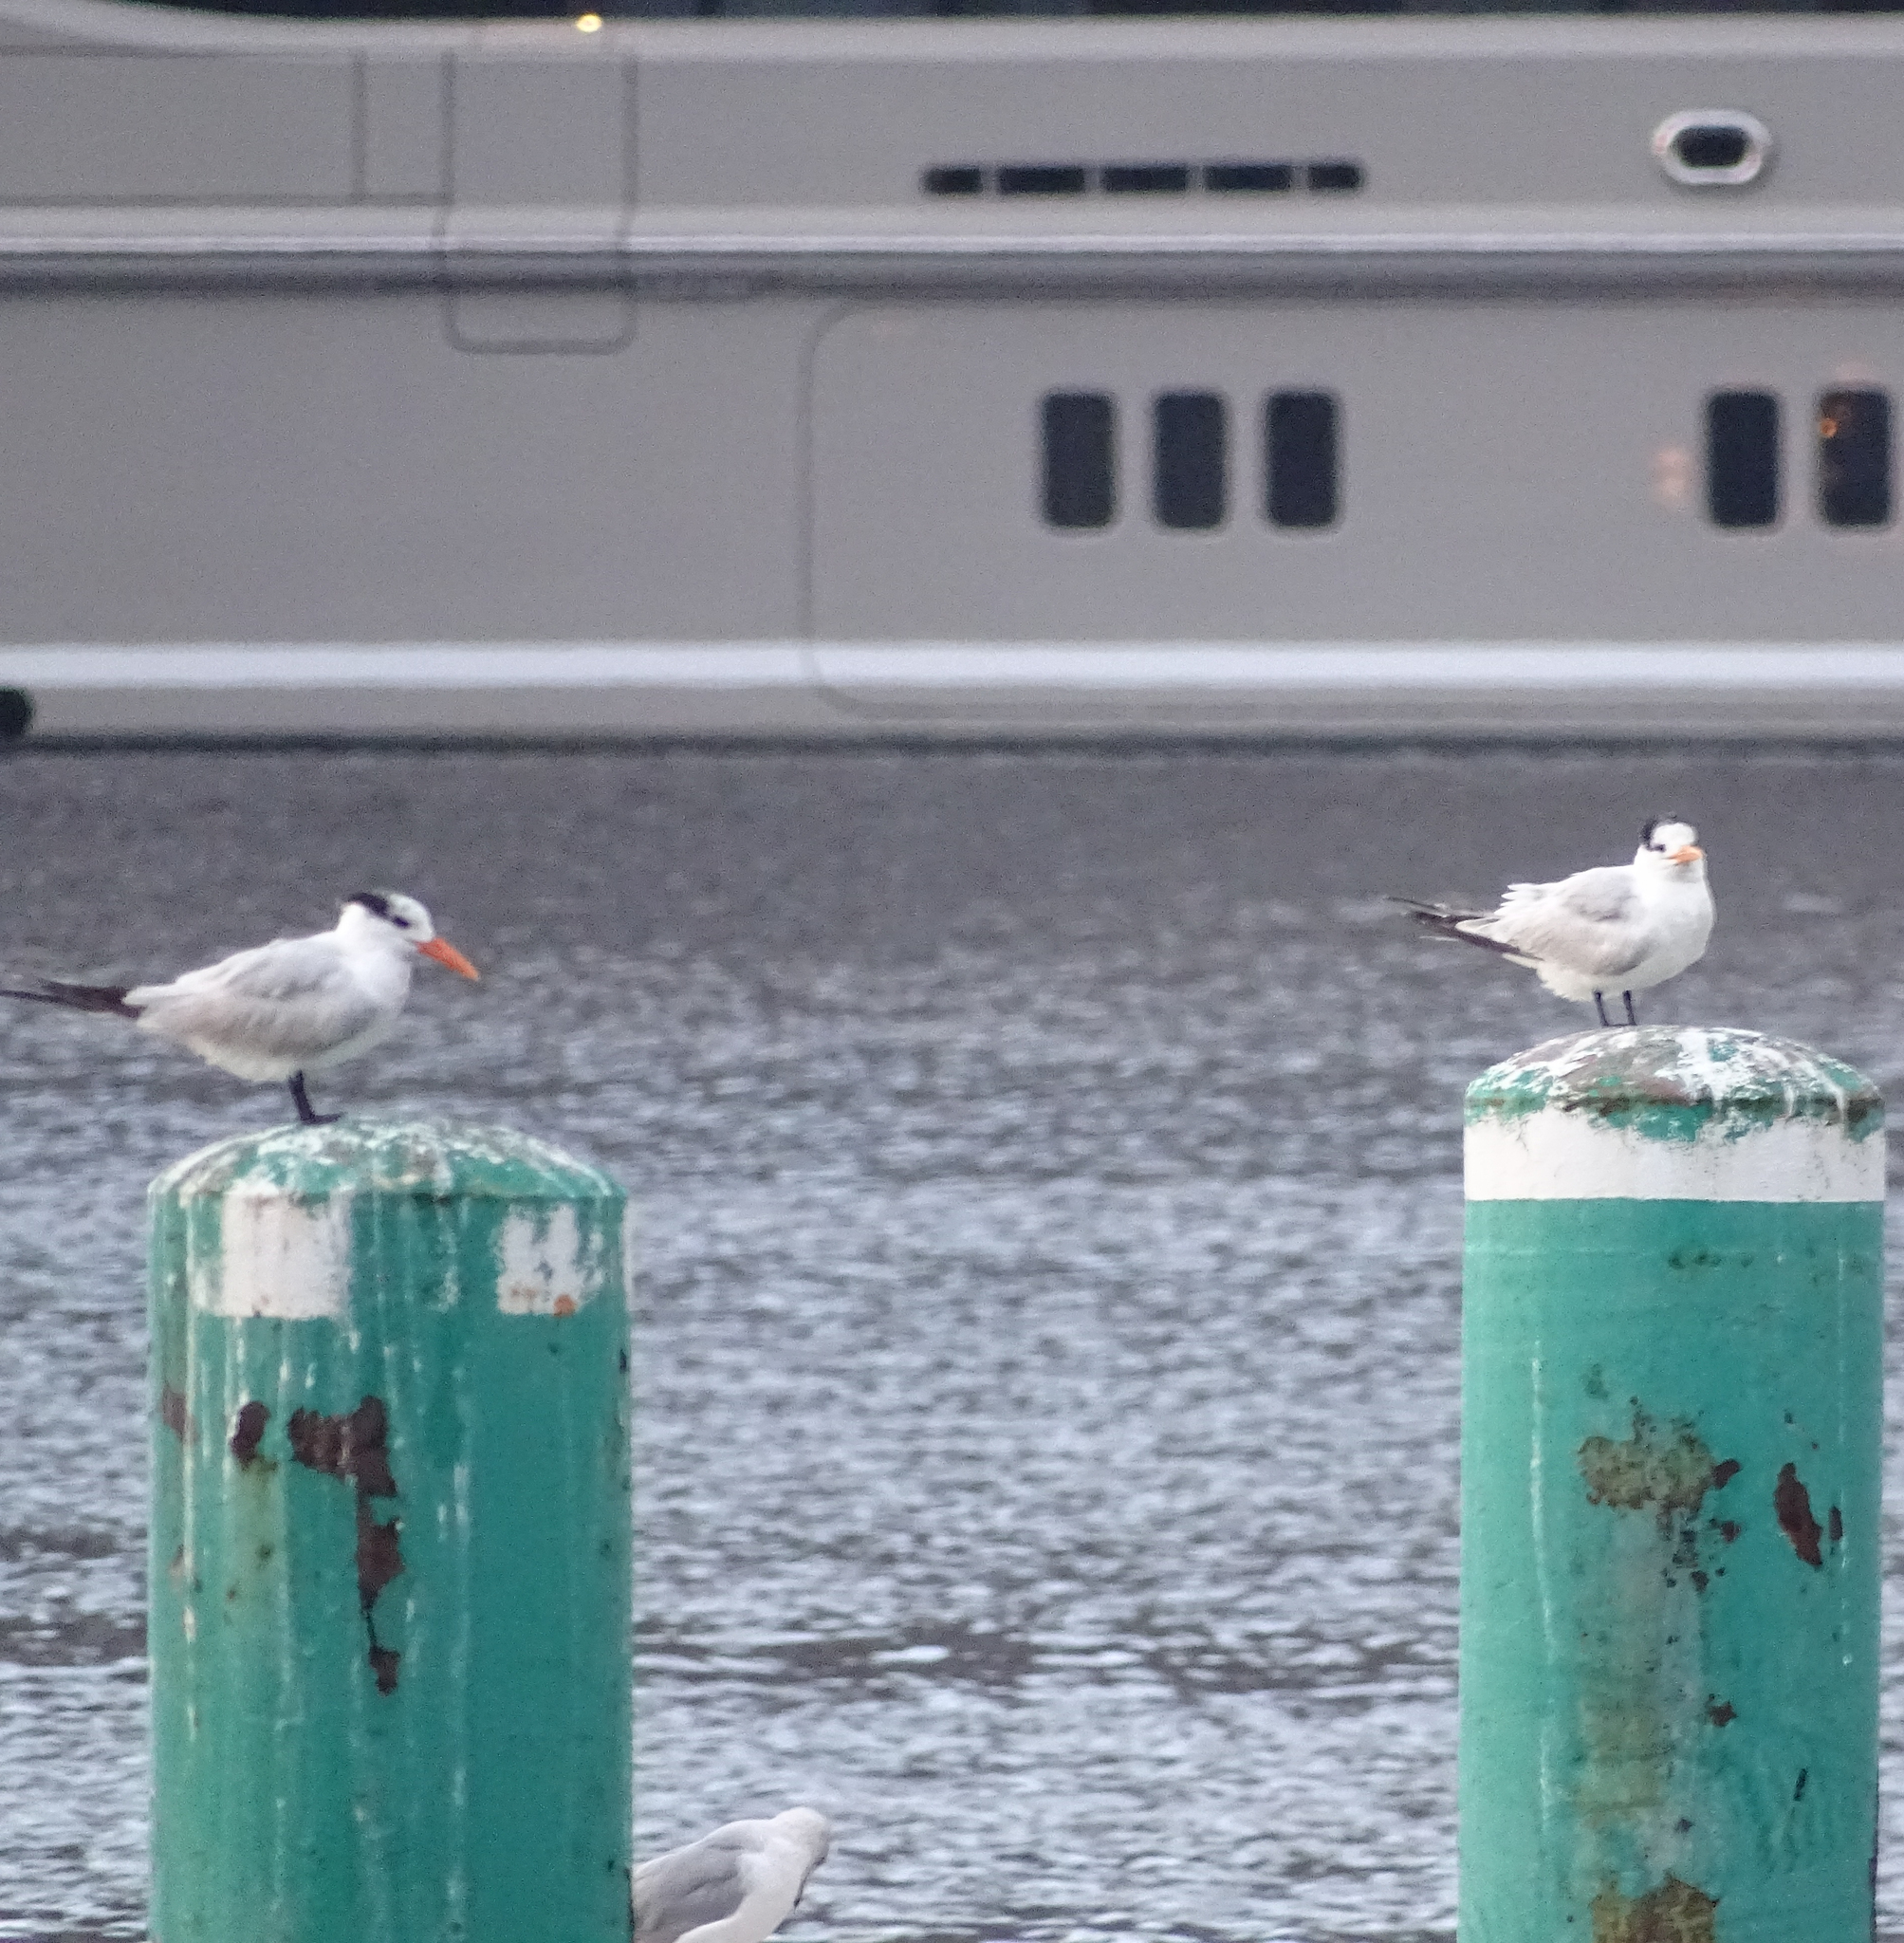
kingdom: Animalia
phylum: Chordata
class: Aves
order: Charadriiformes
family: Laridae
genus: Thalasseus
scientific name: Thalasseus maximus
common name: Royal tern
